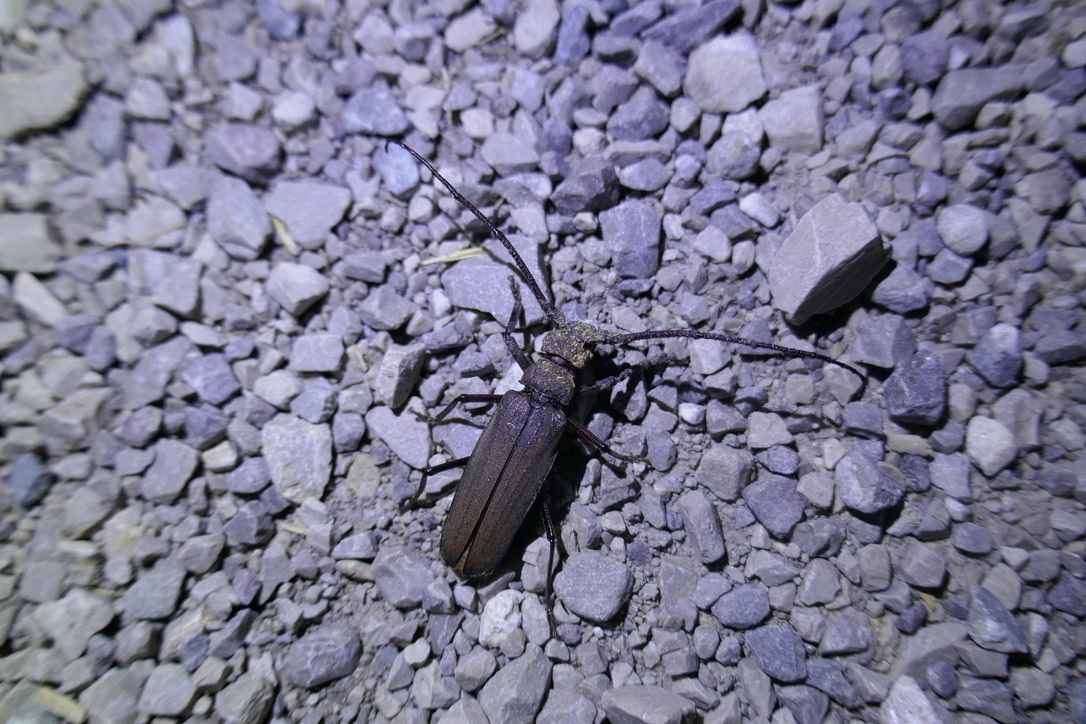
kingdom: Animalia
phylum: Arthropoda
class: Insecta
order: Coleoptera
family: Cerambycidae
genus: Aegosoma
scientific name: Aegosoma scabricorne
